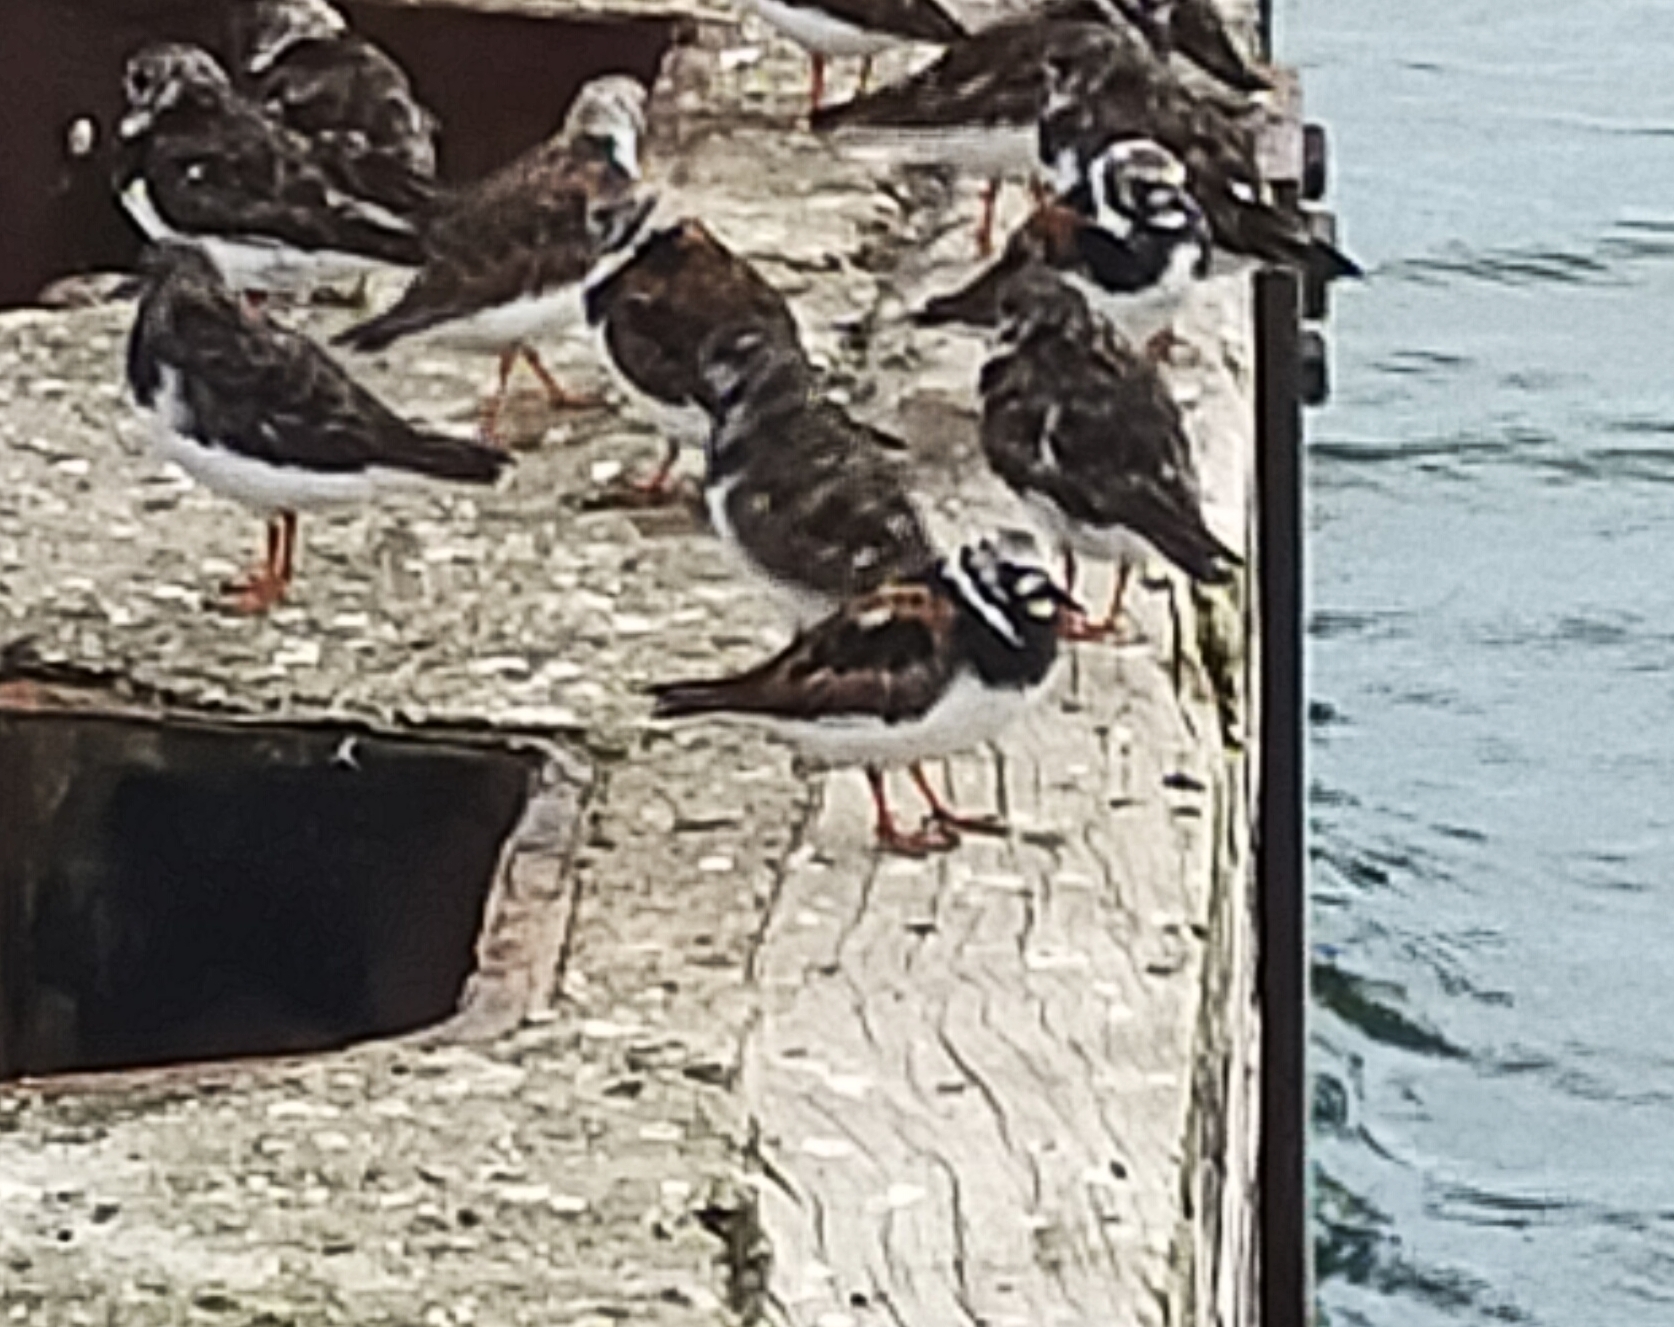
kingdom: Animalia
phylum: Chordata
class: Aves
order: Charadriiformes
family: Scolopacidae
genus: Arenaria
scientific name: Arenaria interpres
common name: Ruddy turnstone
